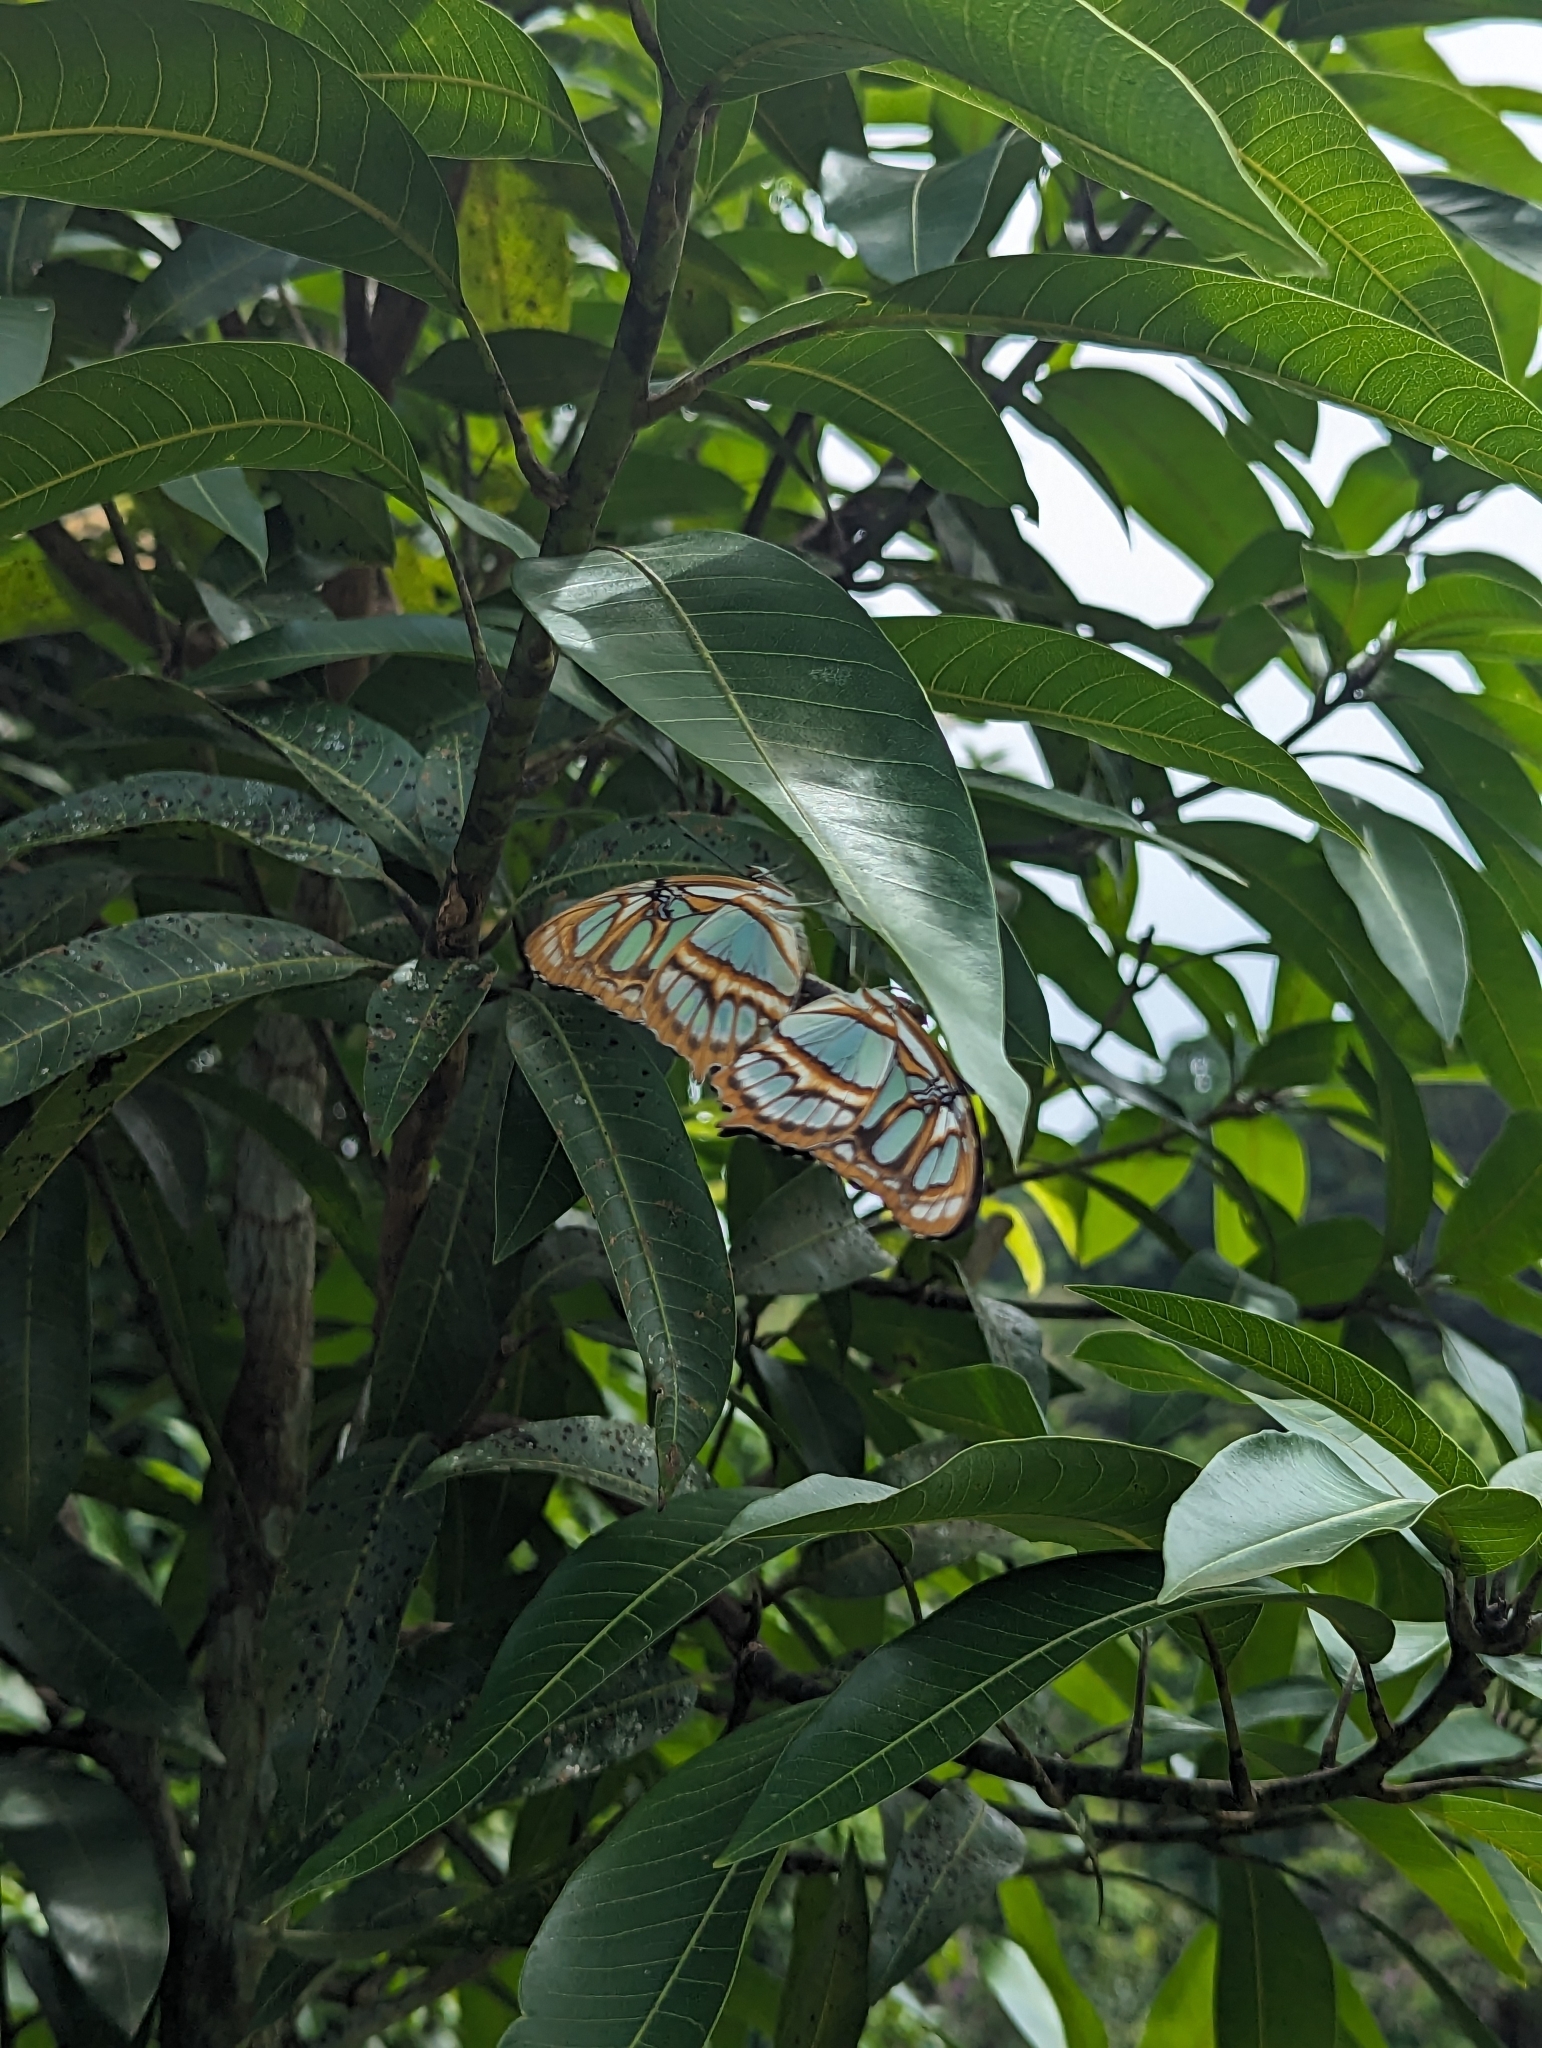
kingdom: Animalia
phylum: Arthropoda
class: Insecta
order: Lepidoptera
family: Nymphalidae
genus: Siproeta
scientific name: Siproeta stelenes
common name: Malachite
